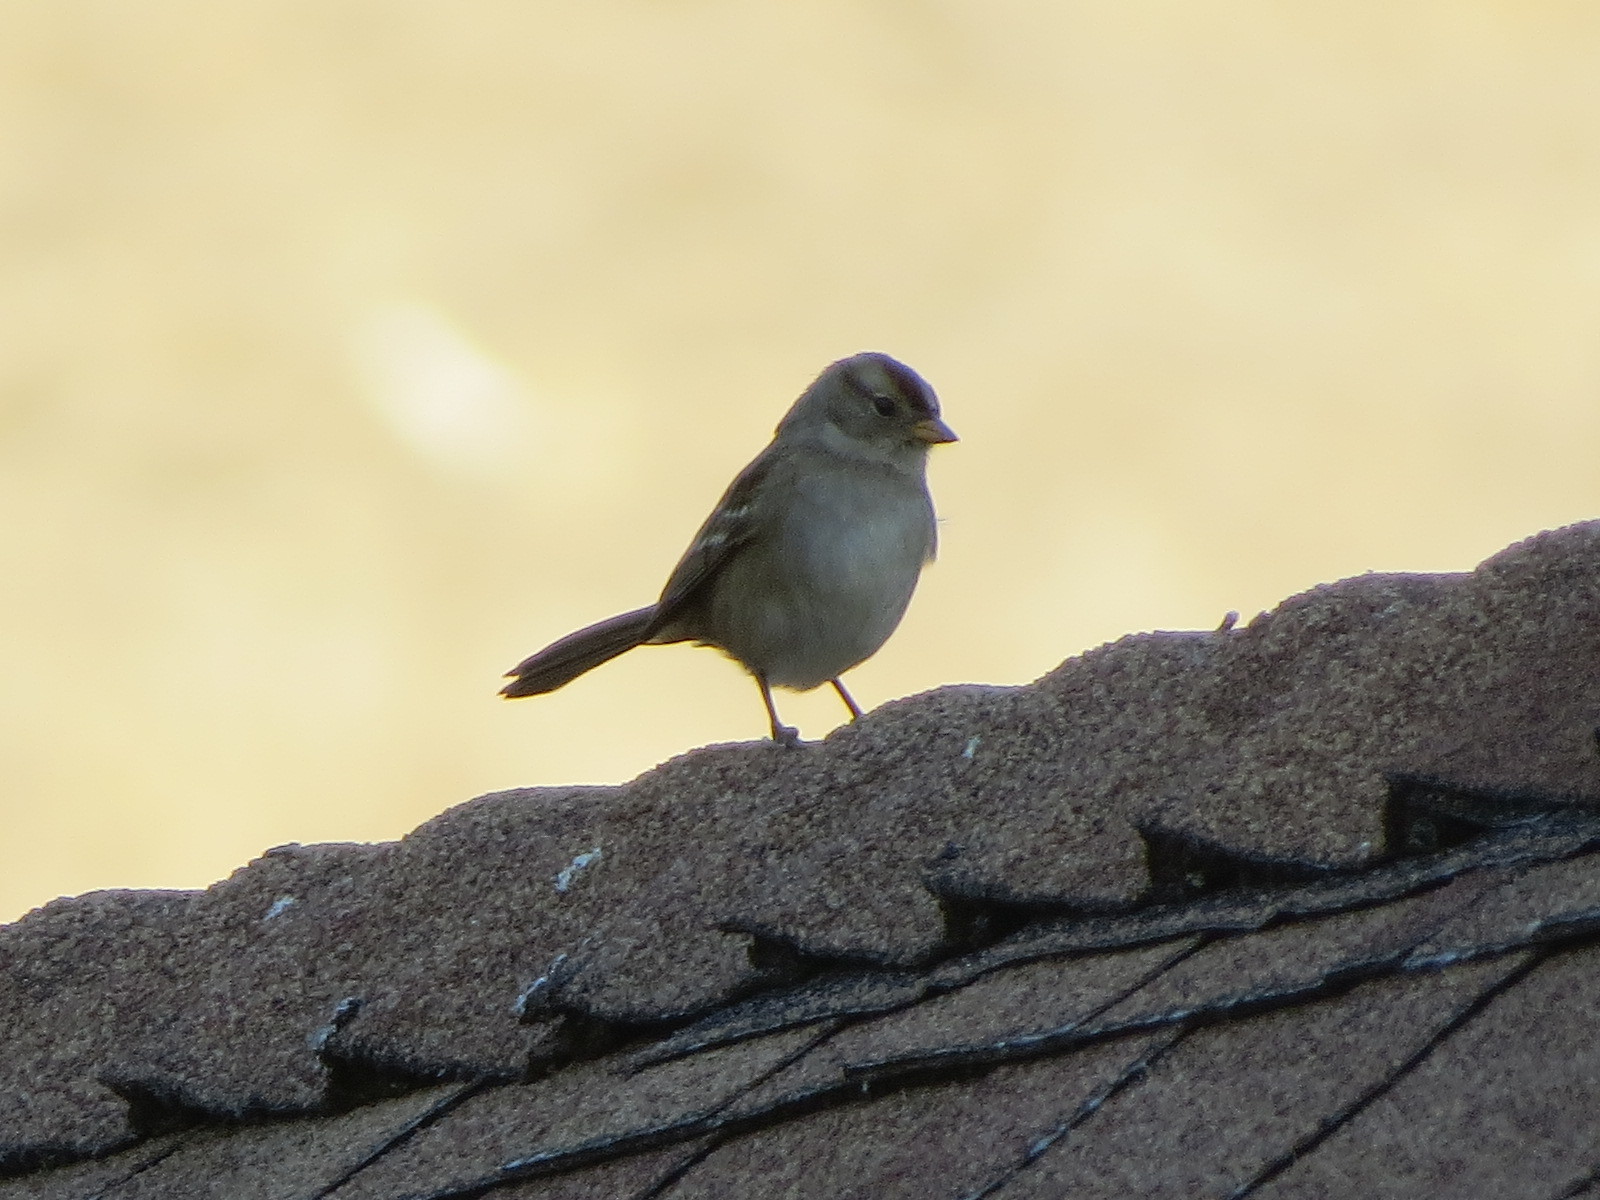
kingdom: Animalia
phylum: Chordata
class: Aves
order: Passeriformes
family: Passerellidae
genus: Zonotrichia
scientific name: Zonotrichia leucophrys
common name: White-crowned sparrow
